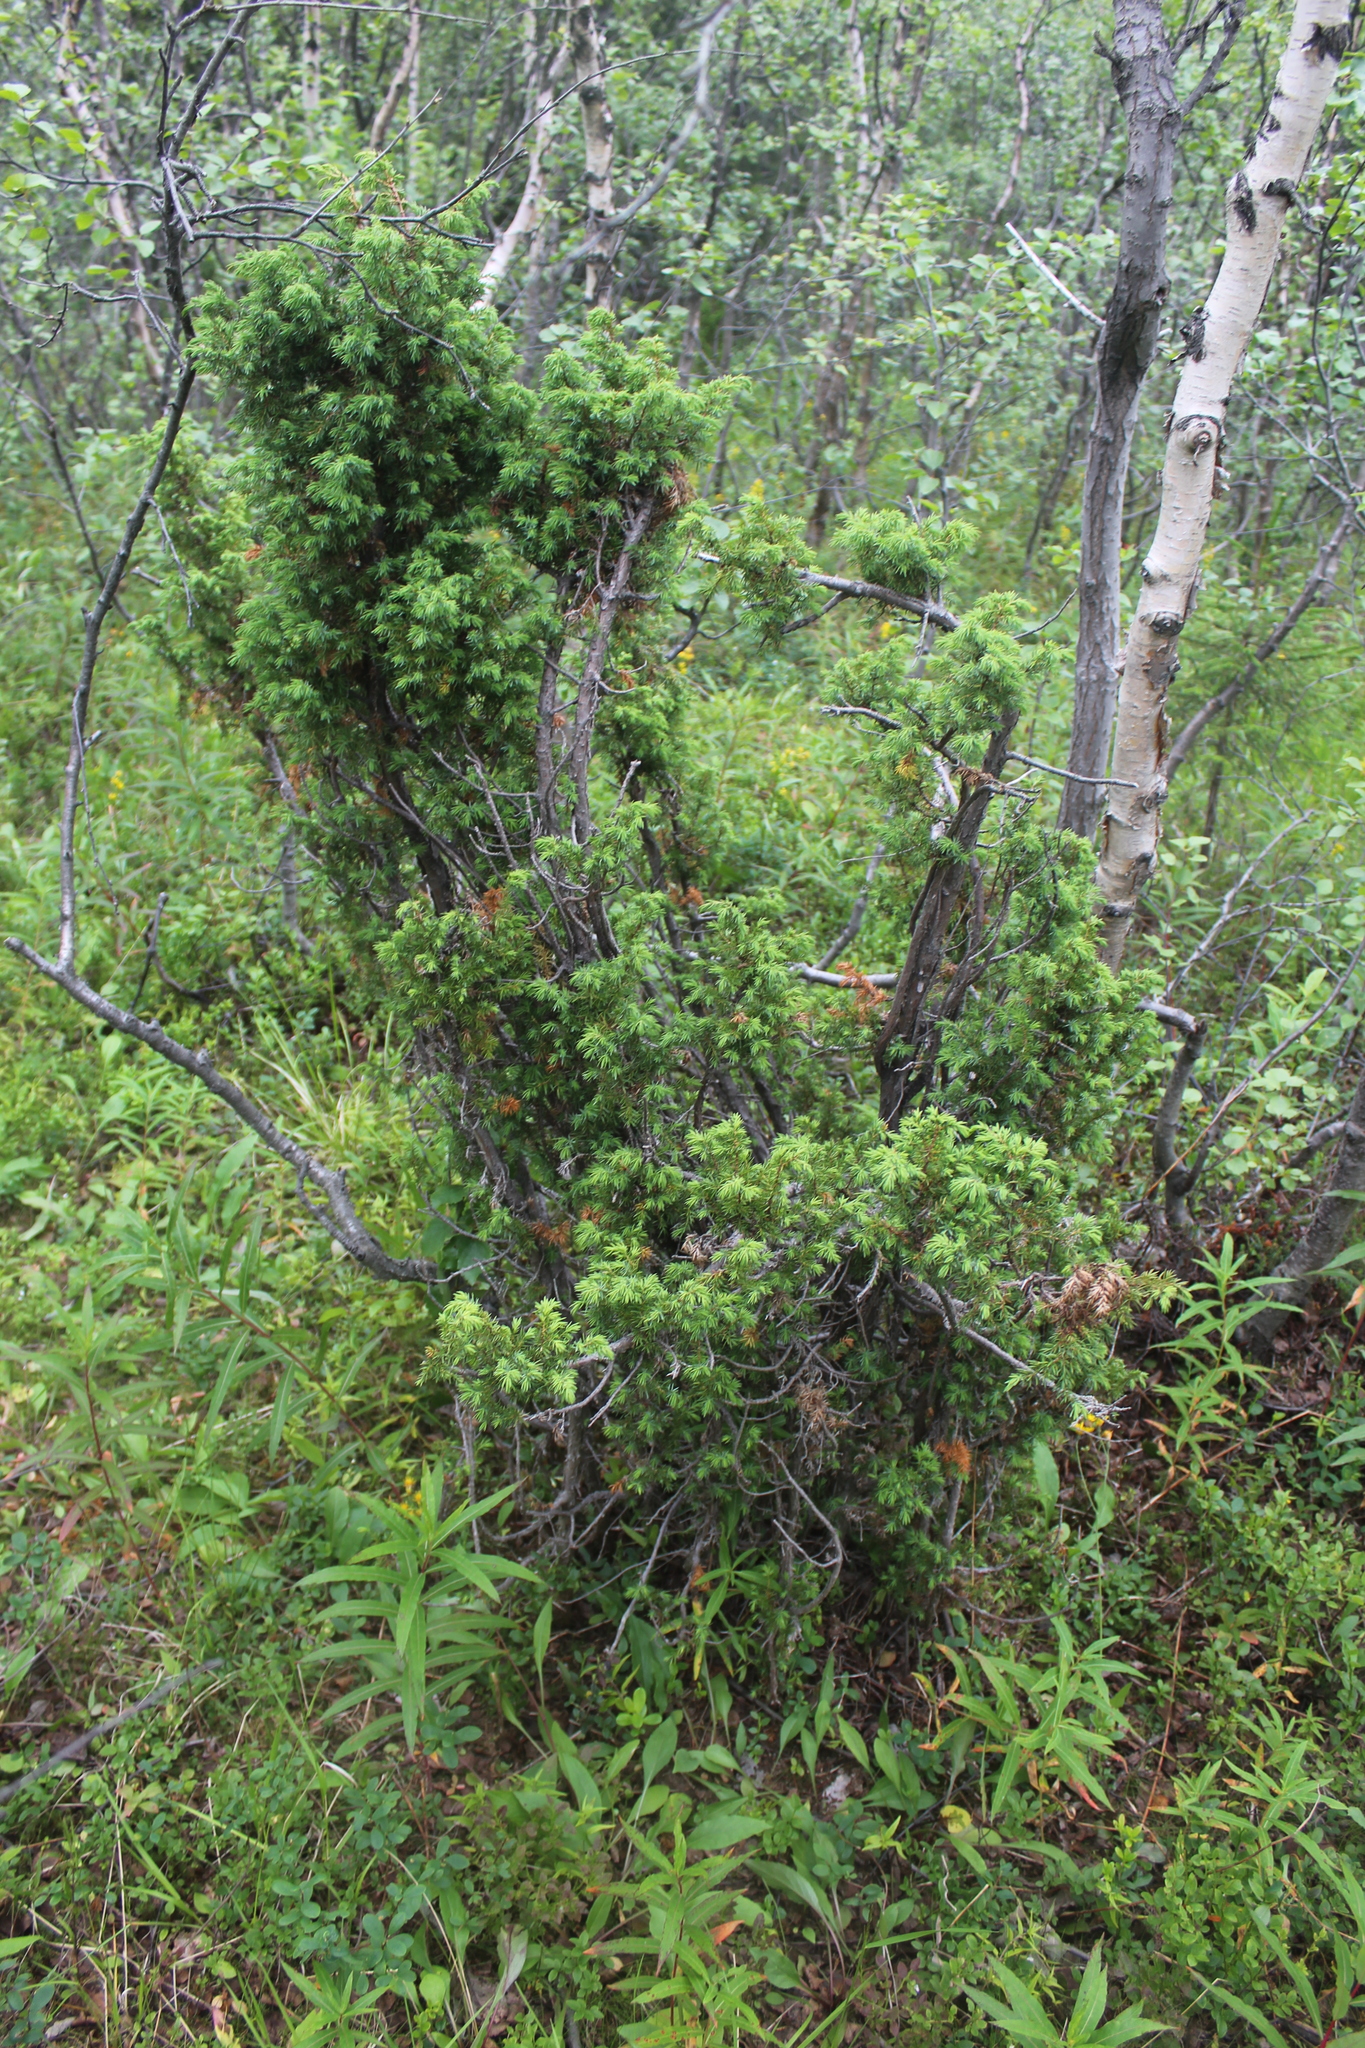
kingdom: Plantae
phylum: Tracheophyta
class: Pinopsida
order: Pinales
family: Cupressaceae
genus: Juniperus
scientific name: Juniperus communis
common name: Common juniper
